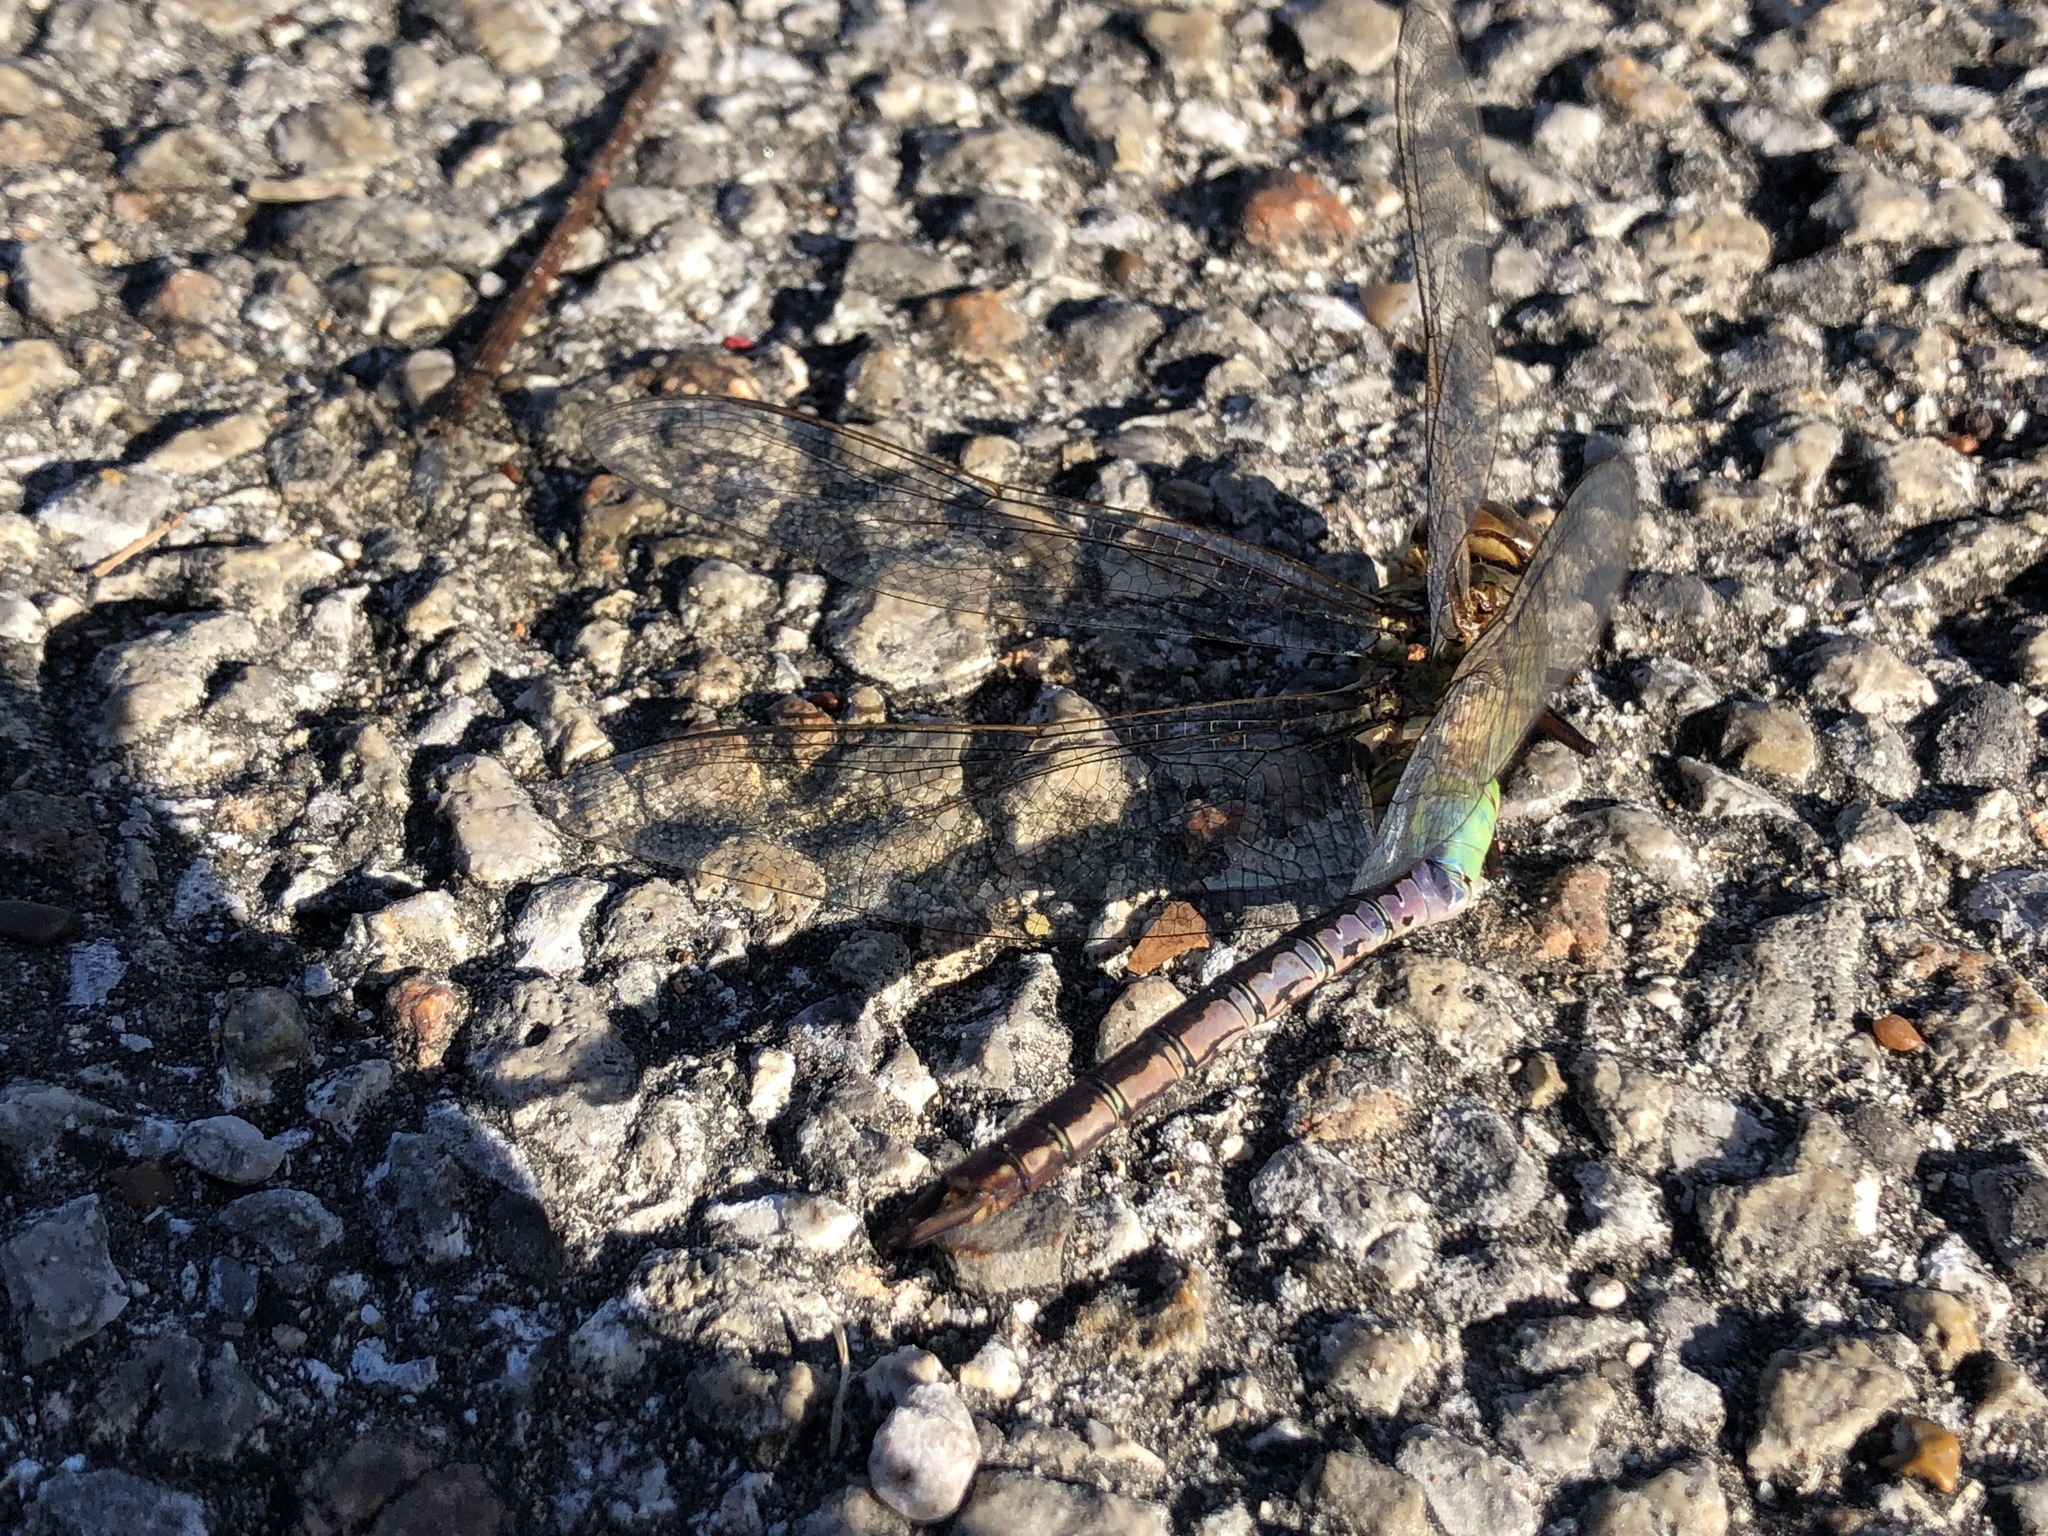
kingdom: Animalia
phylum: Arthropoda
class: Insecta
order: Odonata
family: Aeshnidae
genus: Anax
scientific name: Anax junius
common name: Common green darner
